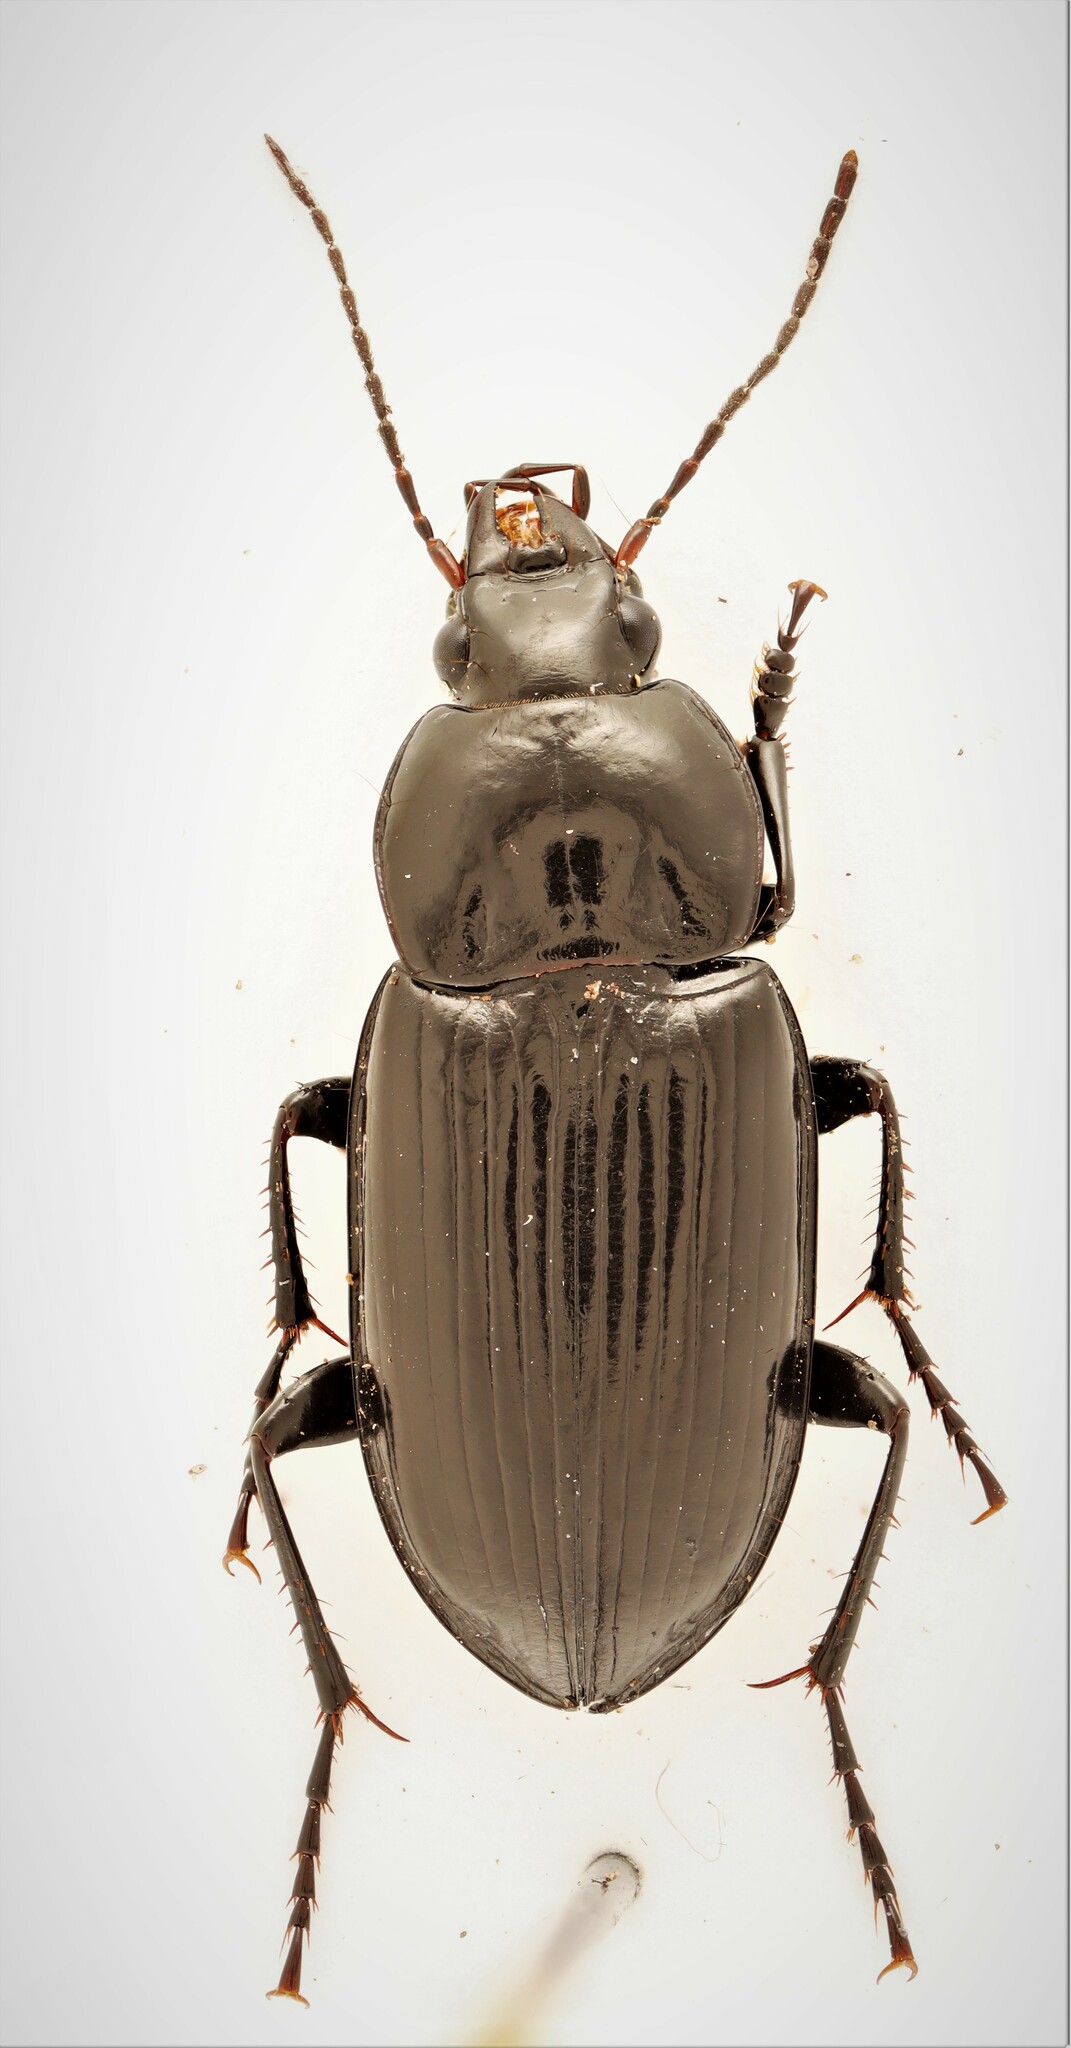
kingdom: Animalia
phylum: Arthropoda
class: Insecta
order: Coleoptera
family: Carabidae
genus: Diplocheila
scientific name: Diplocheila obtusa
